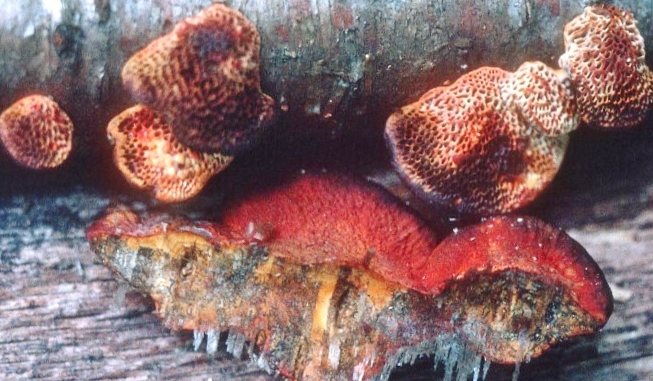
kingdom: Fungi
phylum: Ascomycota
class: Sordariomycetes
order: Hypocreales
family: Hypocreaceae
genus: Hypomyces
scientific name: Hypomyces aurantius
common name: Orange polypore mould
